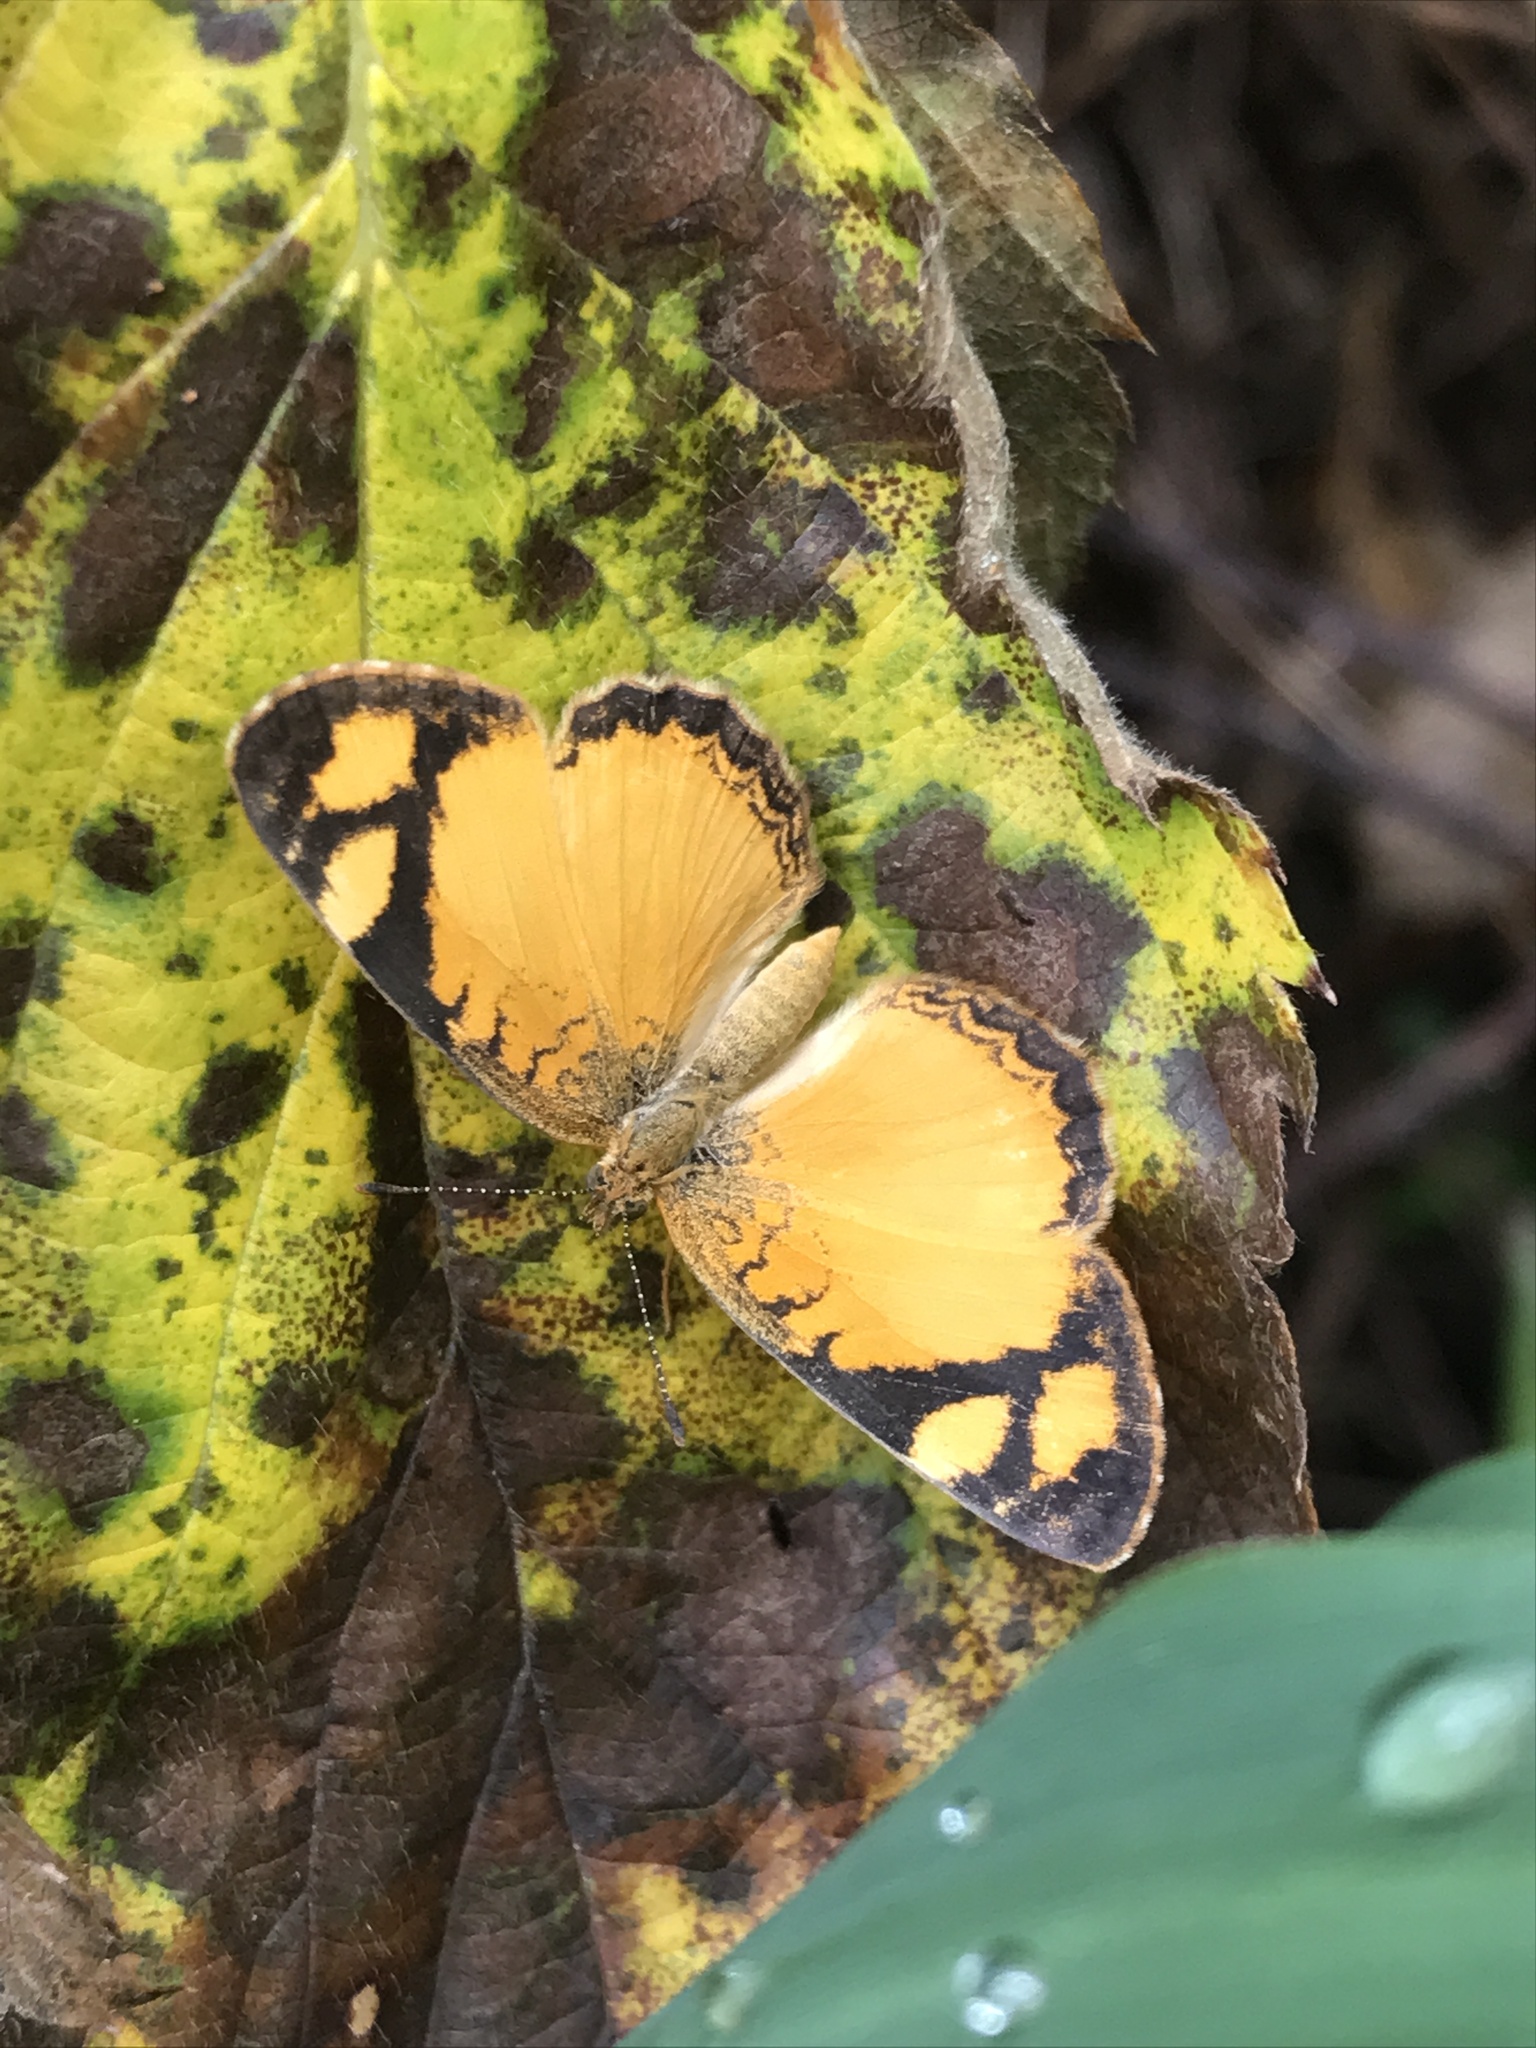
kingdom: Animalia
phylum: Arthropoda
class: Insecta
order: Lepidoptera
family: Nymphalidae
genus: Tegosa
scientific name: Tegosa claudina
